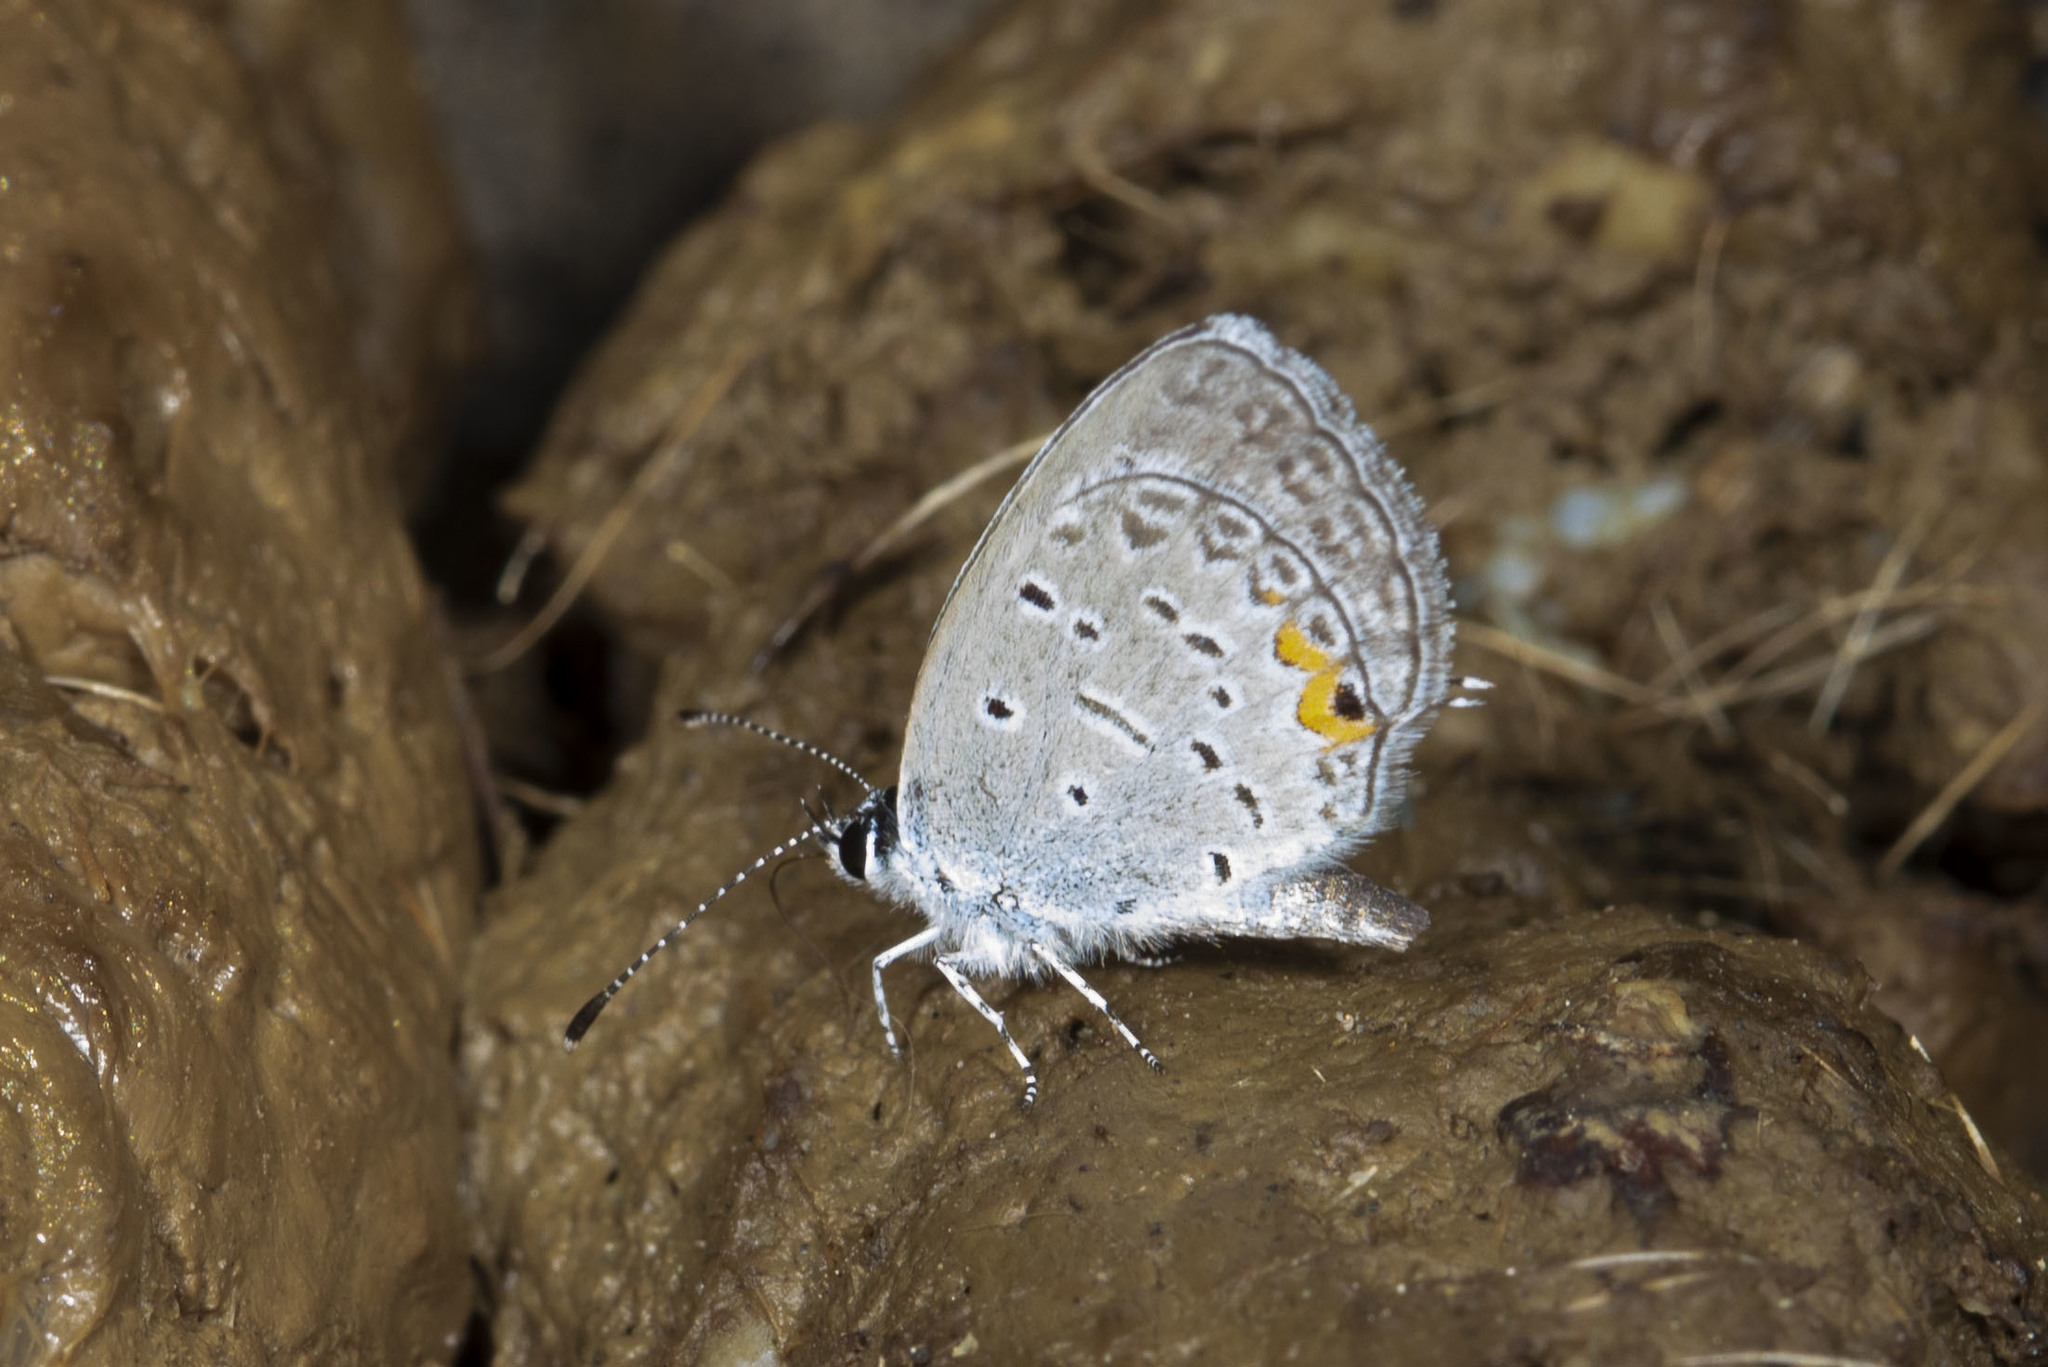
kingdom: Animalia
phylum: Arthropoda
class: Insecta
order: Lepidoptera
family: Lycaenidae
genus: Elkalyce
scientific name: Elkalyce comyntas
